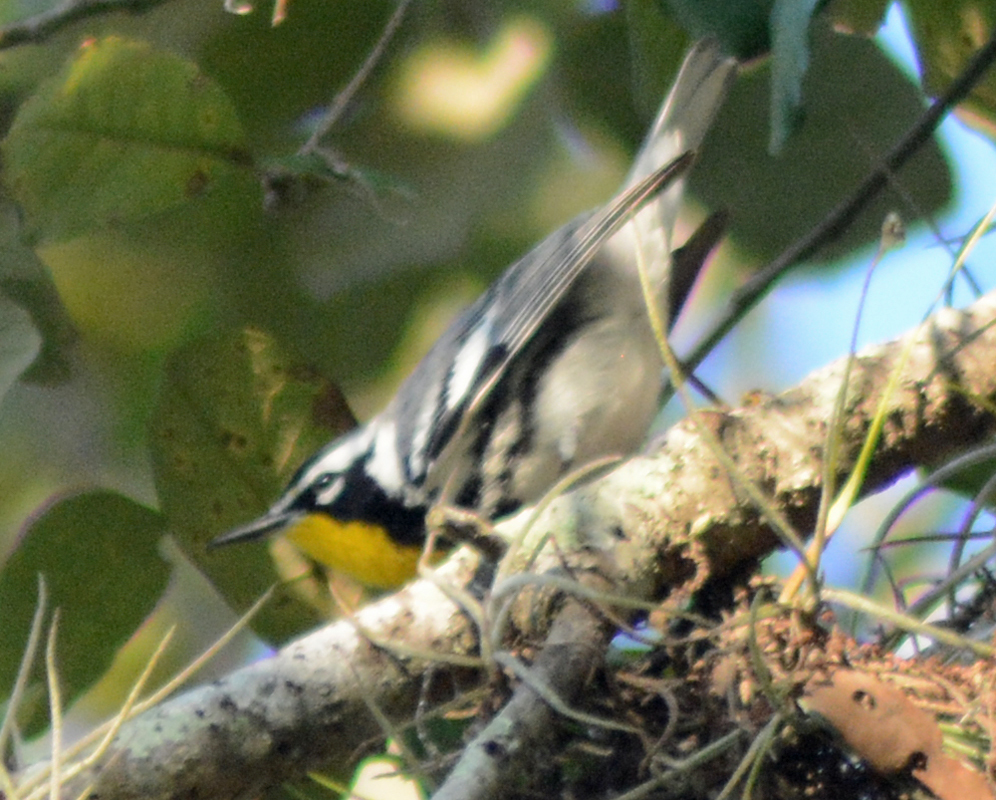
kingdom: Animalia
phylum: Chordata
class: Aves
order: Passeriformes
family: Parulidae
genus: Setophaga
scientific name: Setophaga dominica
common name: Yellow-throated warbler
